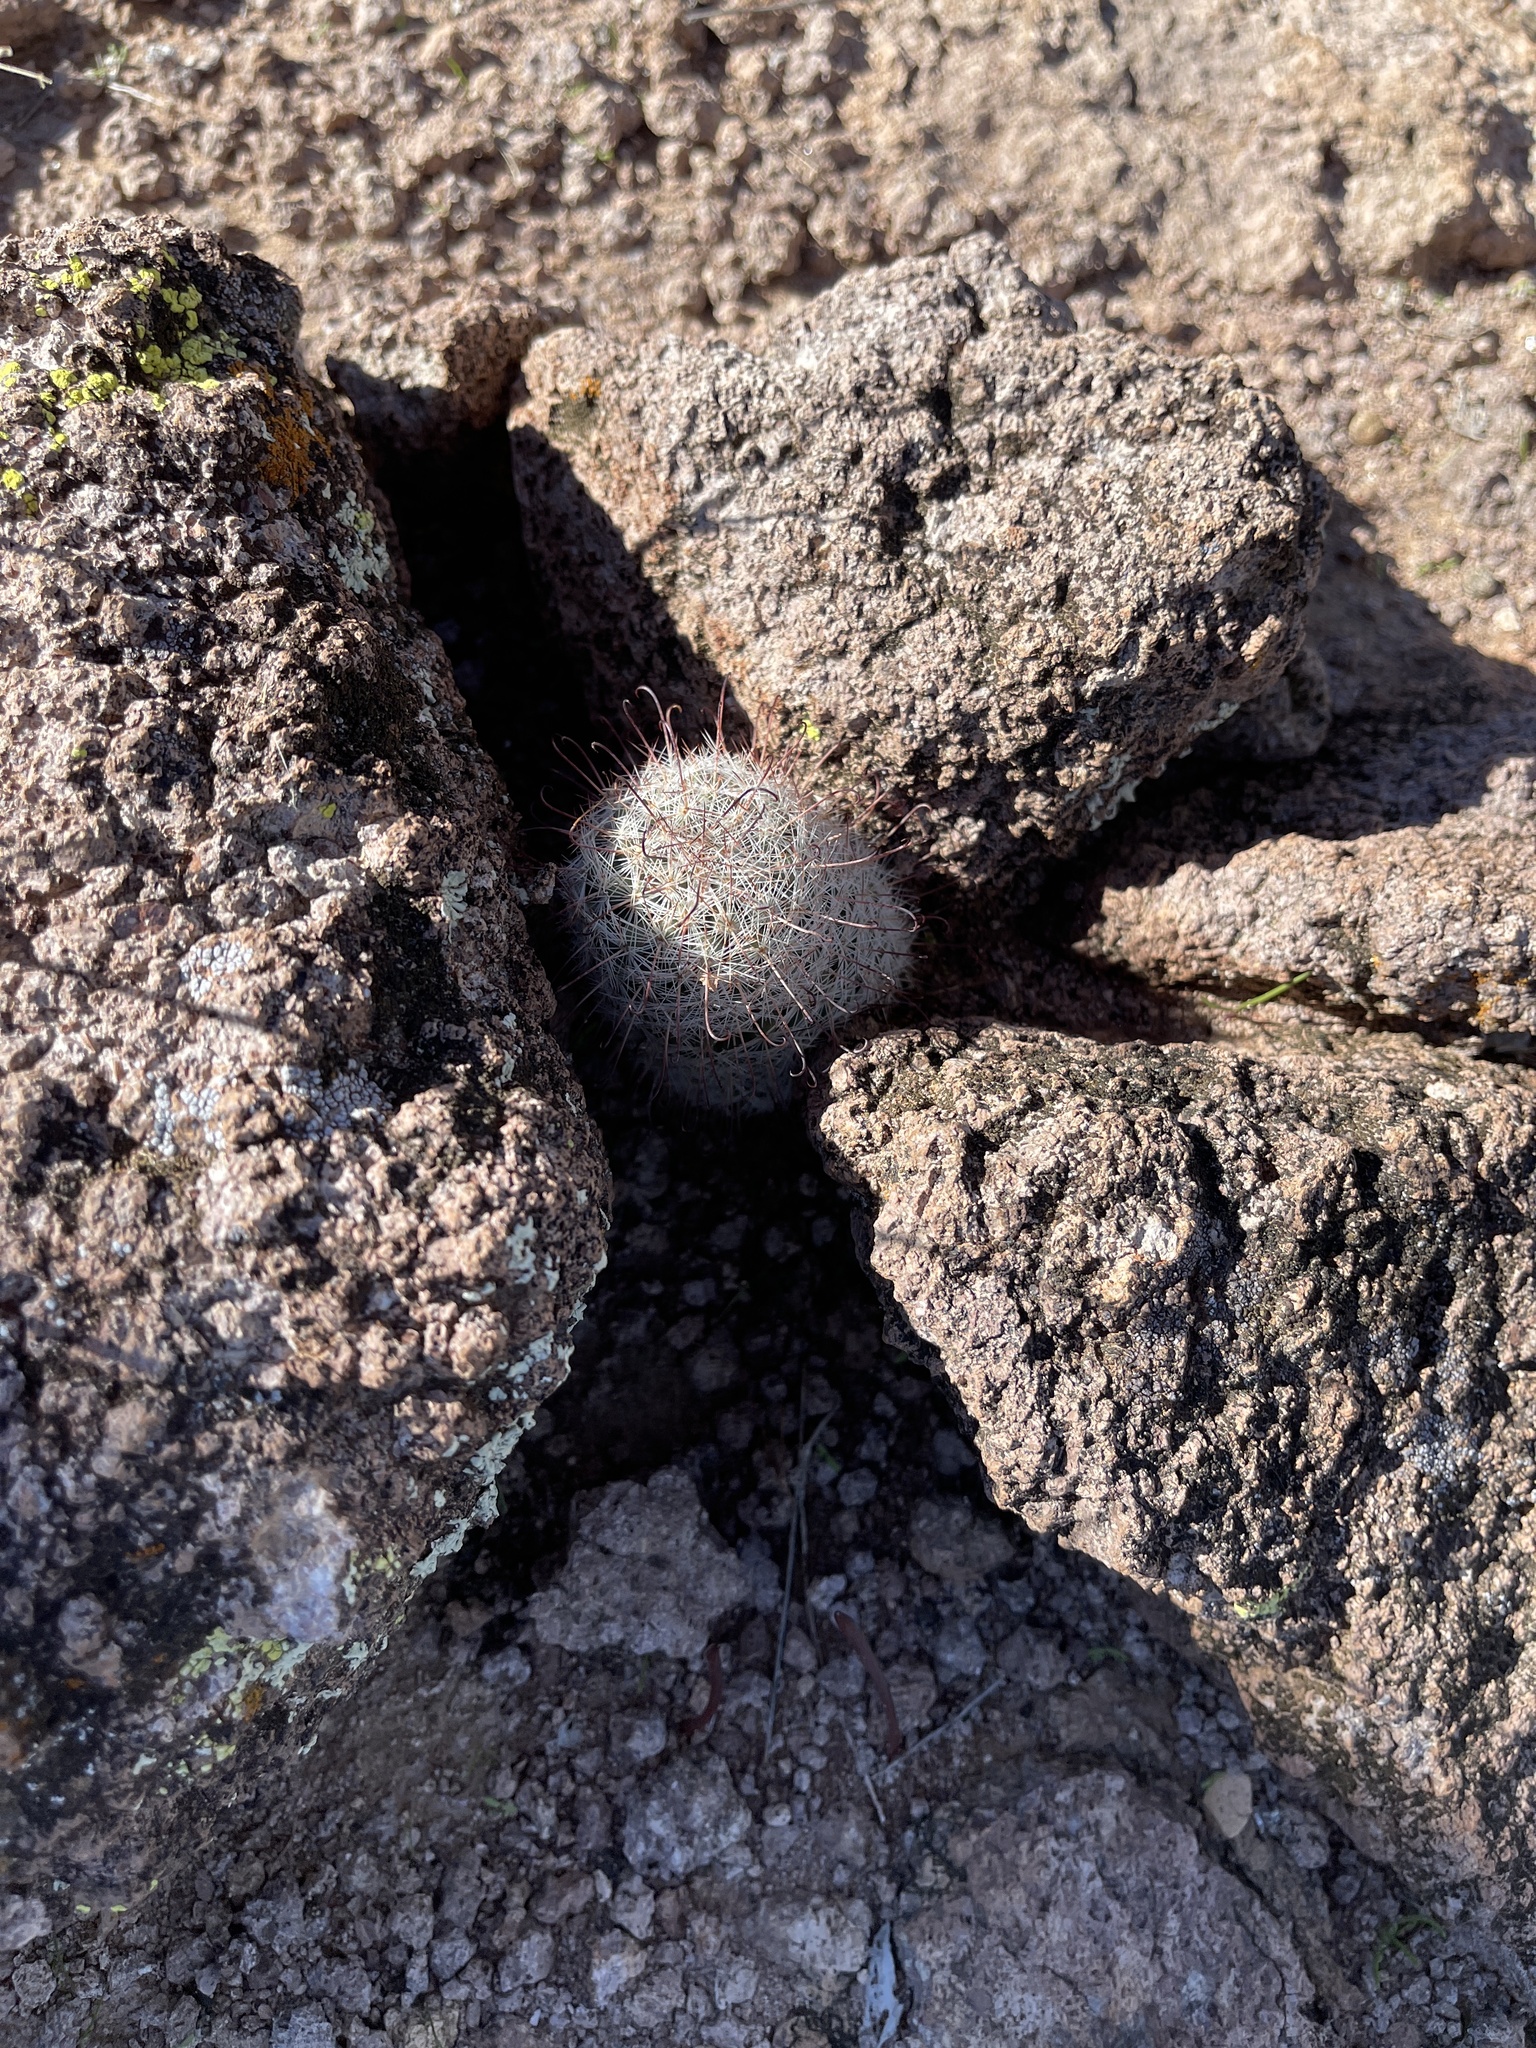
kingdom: Plantae
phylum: Tracheophyta
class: Magnoliopsida
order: Caryophyllales
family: Cactaceae
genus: Cochemiea
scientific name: Cochemiea grahamii
